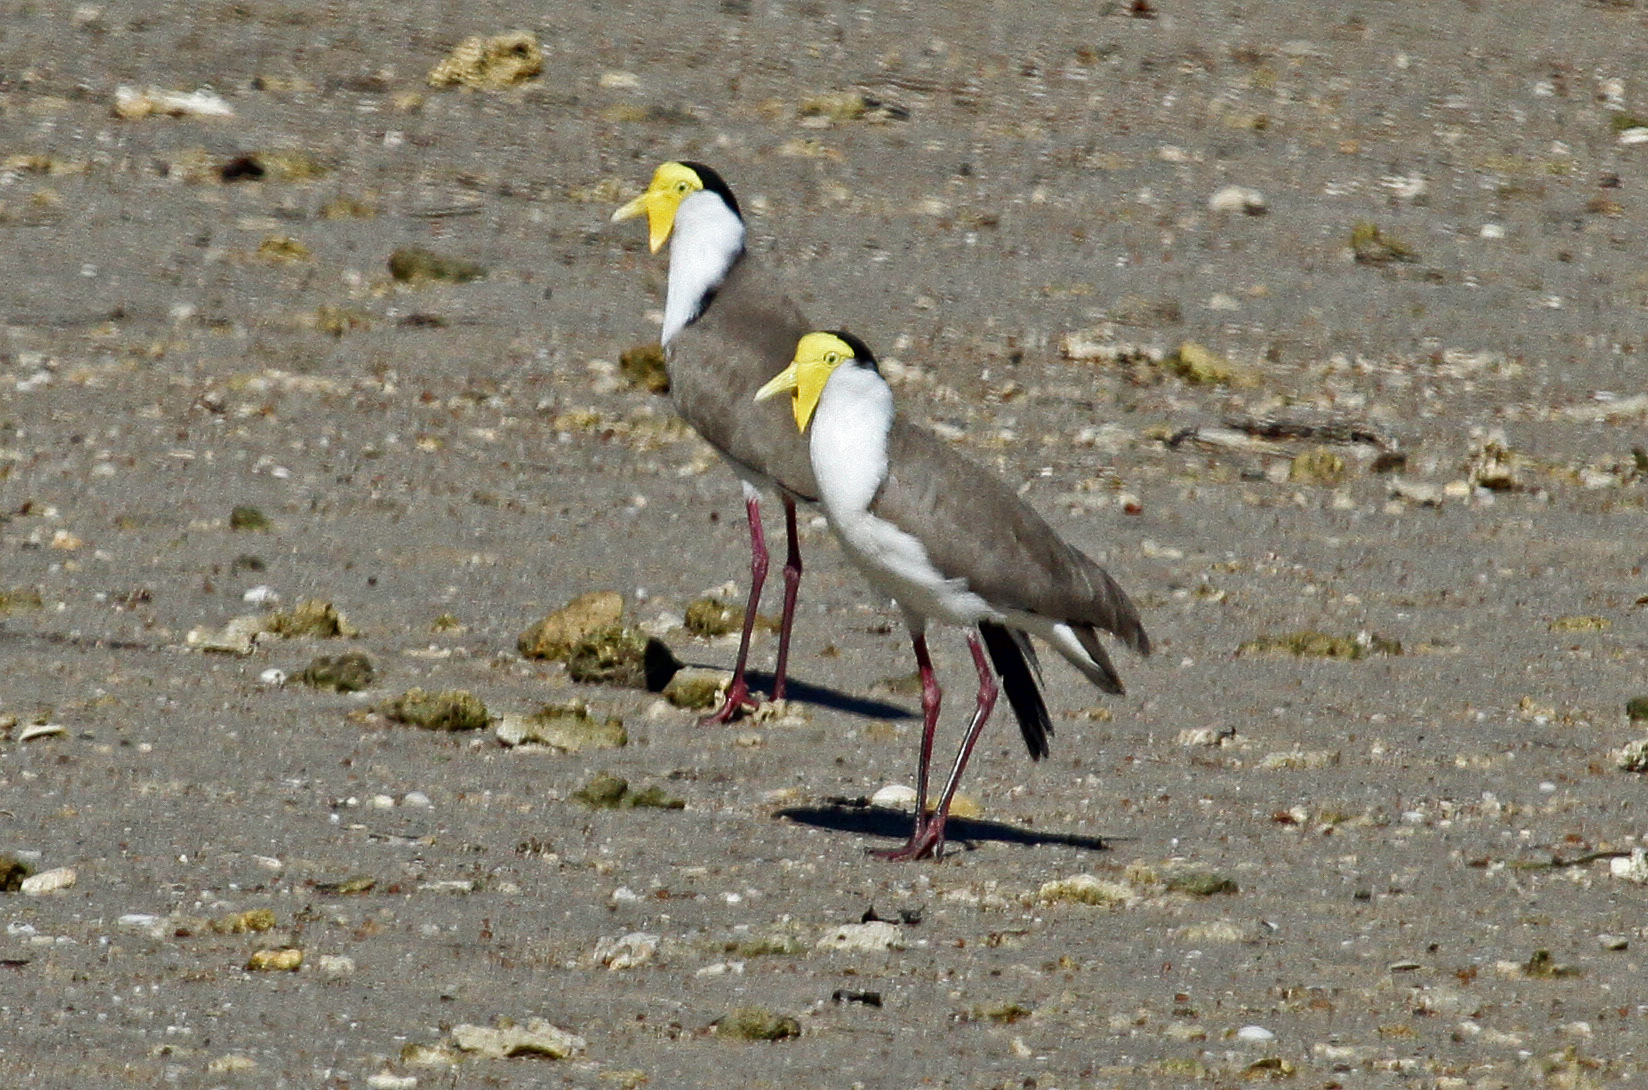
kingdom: Animalia
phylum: Chordata
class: Aves
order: Charadriiformes
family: Charadriidae
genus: Vanellus
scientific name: Vanellus miles
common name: Masked lapwing
